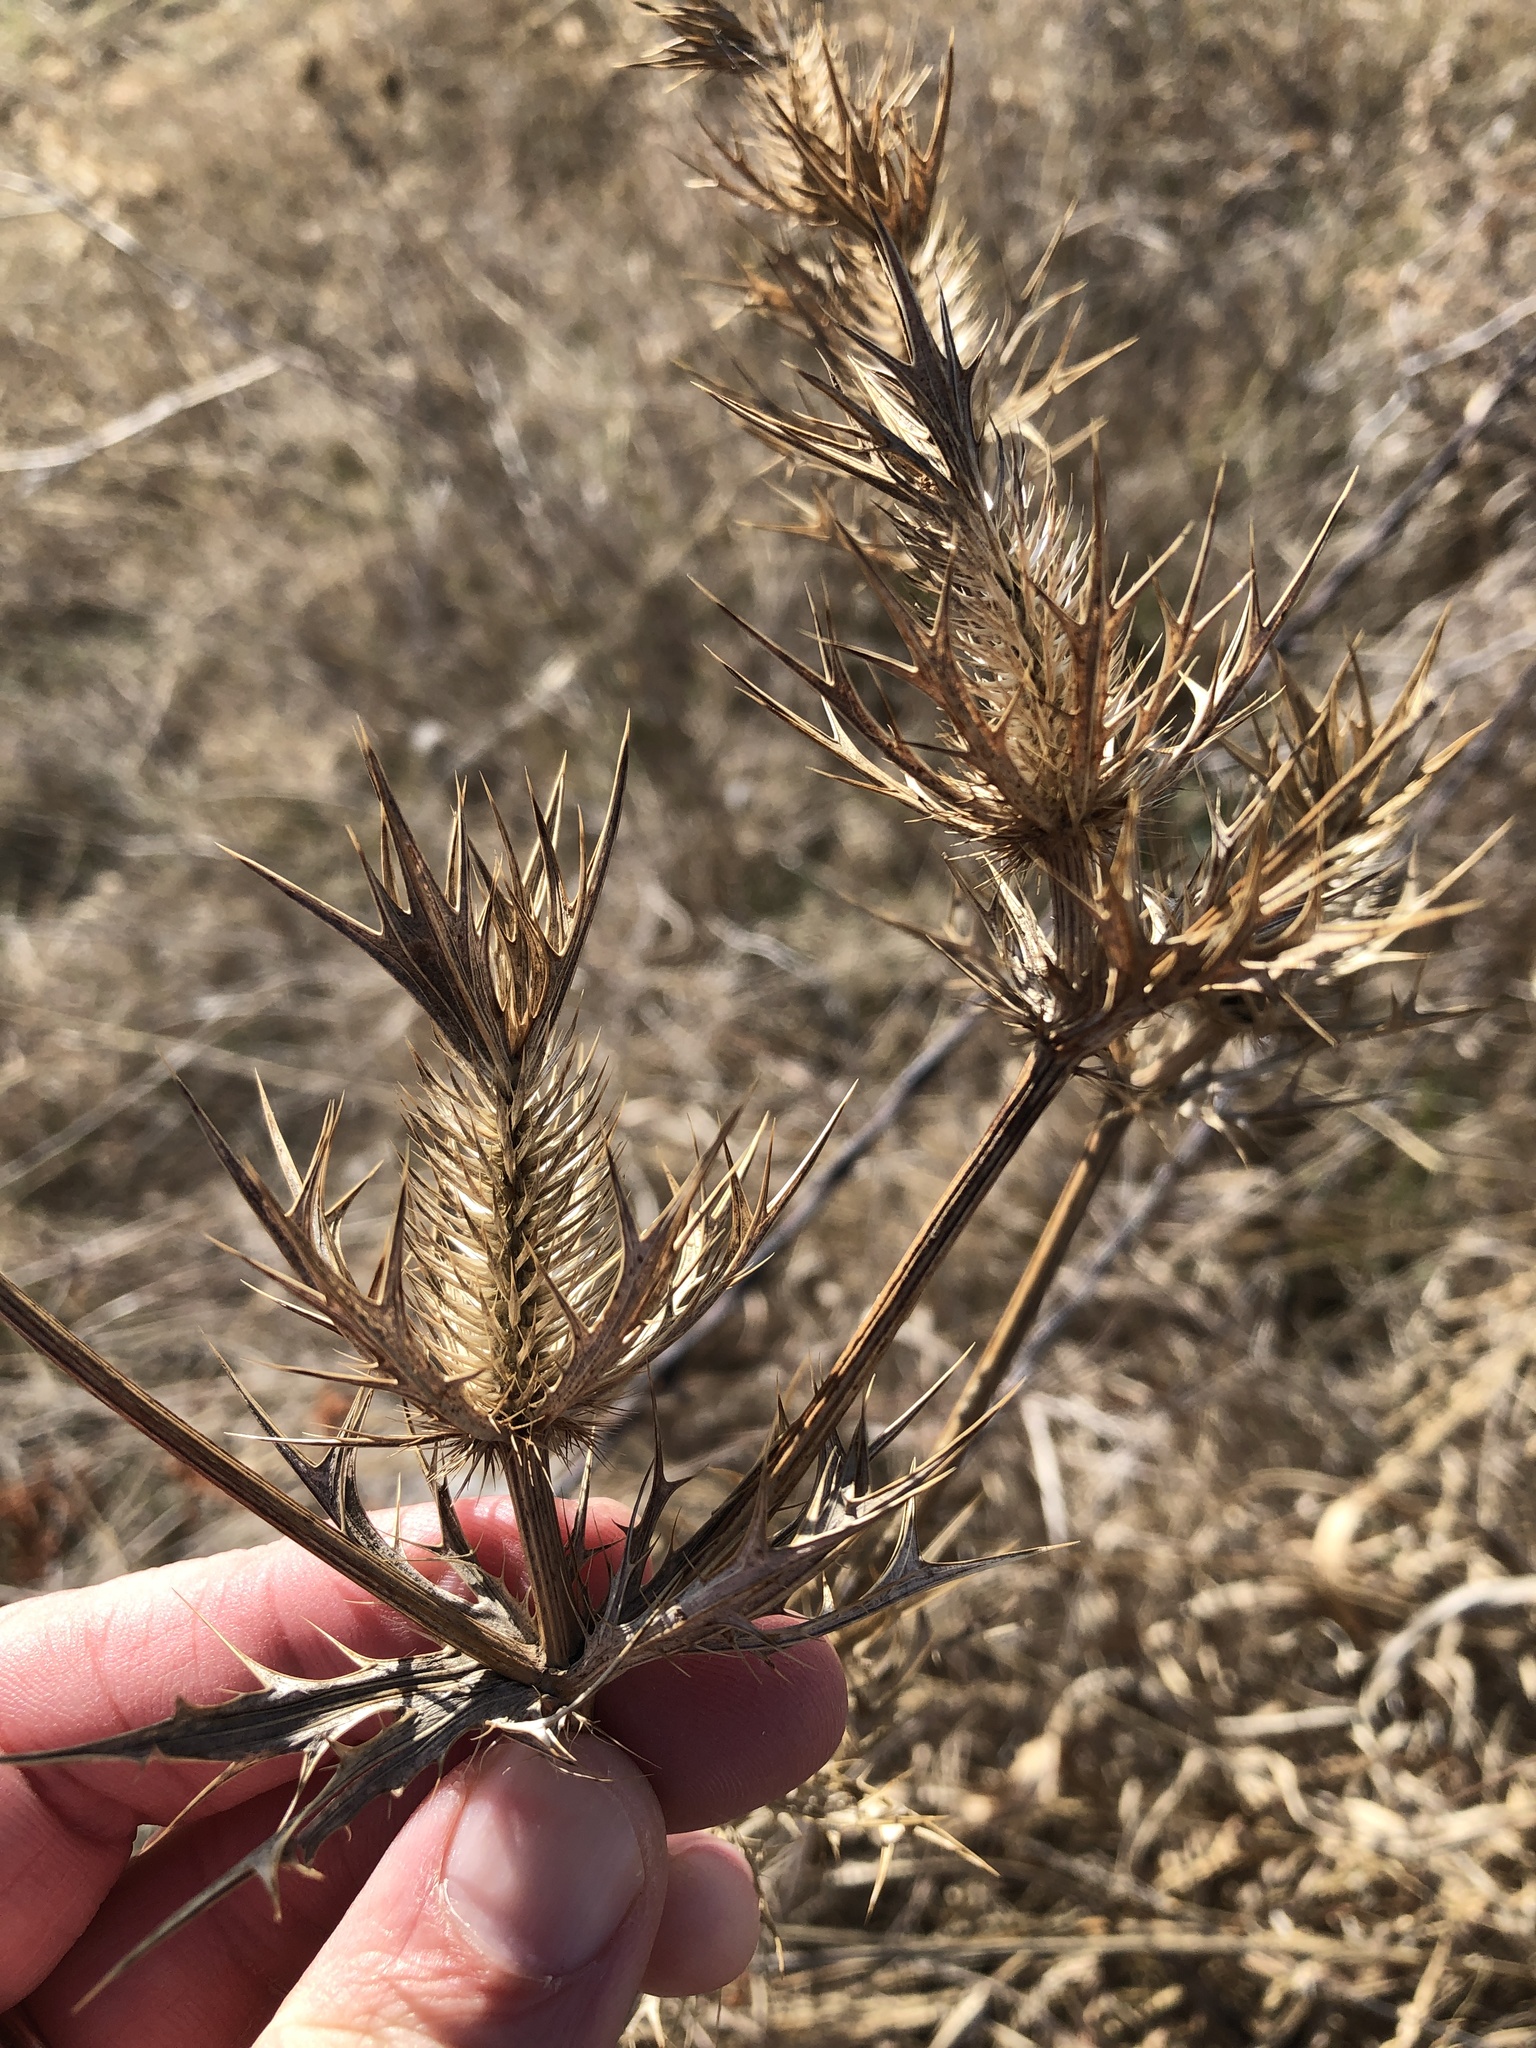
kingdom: Plantae
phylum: Tracheophyta
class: Magnoliopsida
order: Apiales
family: Apiaceae
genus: Eryngium
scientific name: Eryngium leavenworthii
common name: Leavenworth's eryngo
